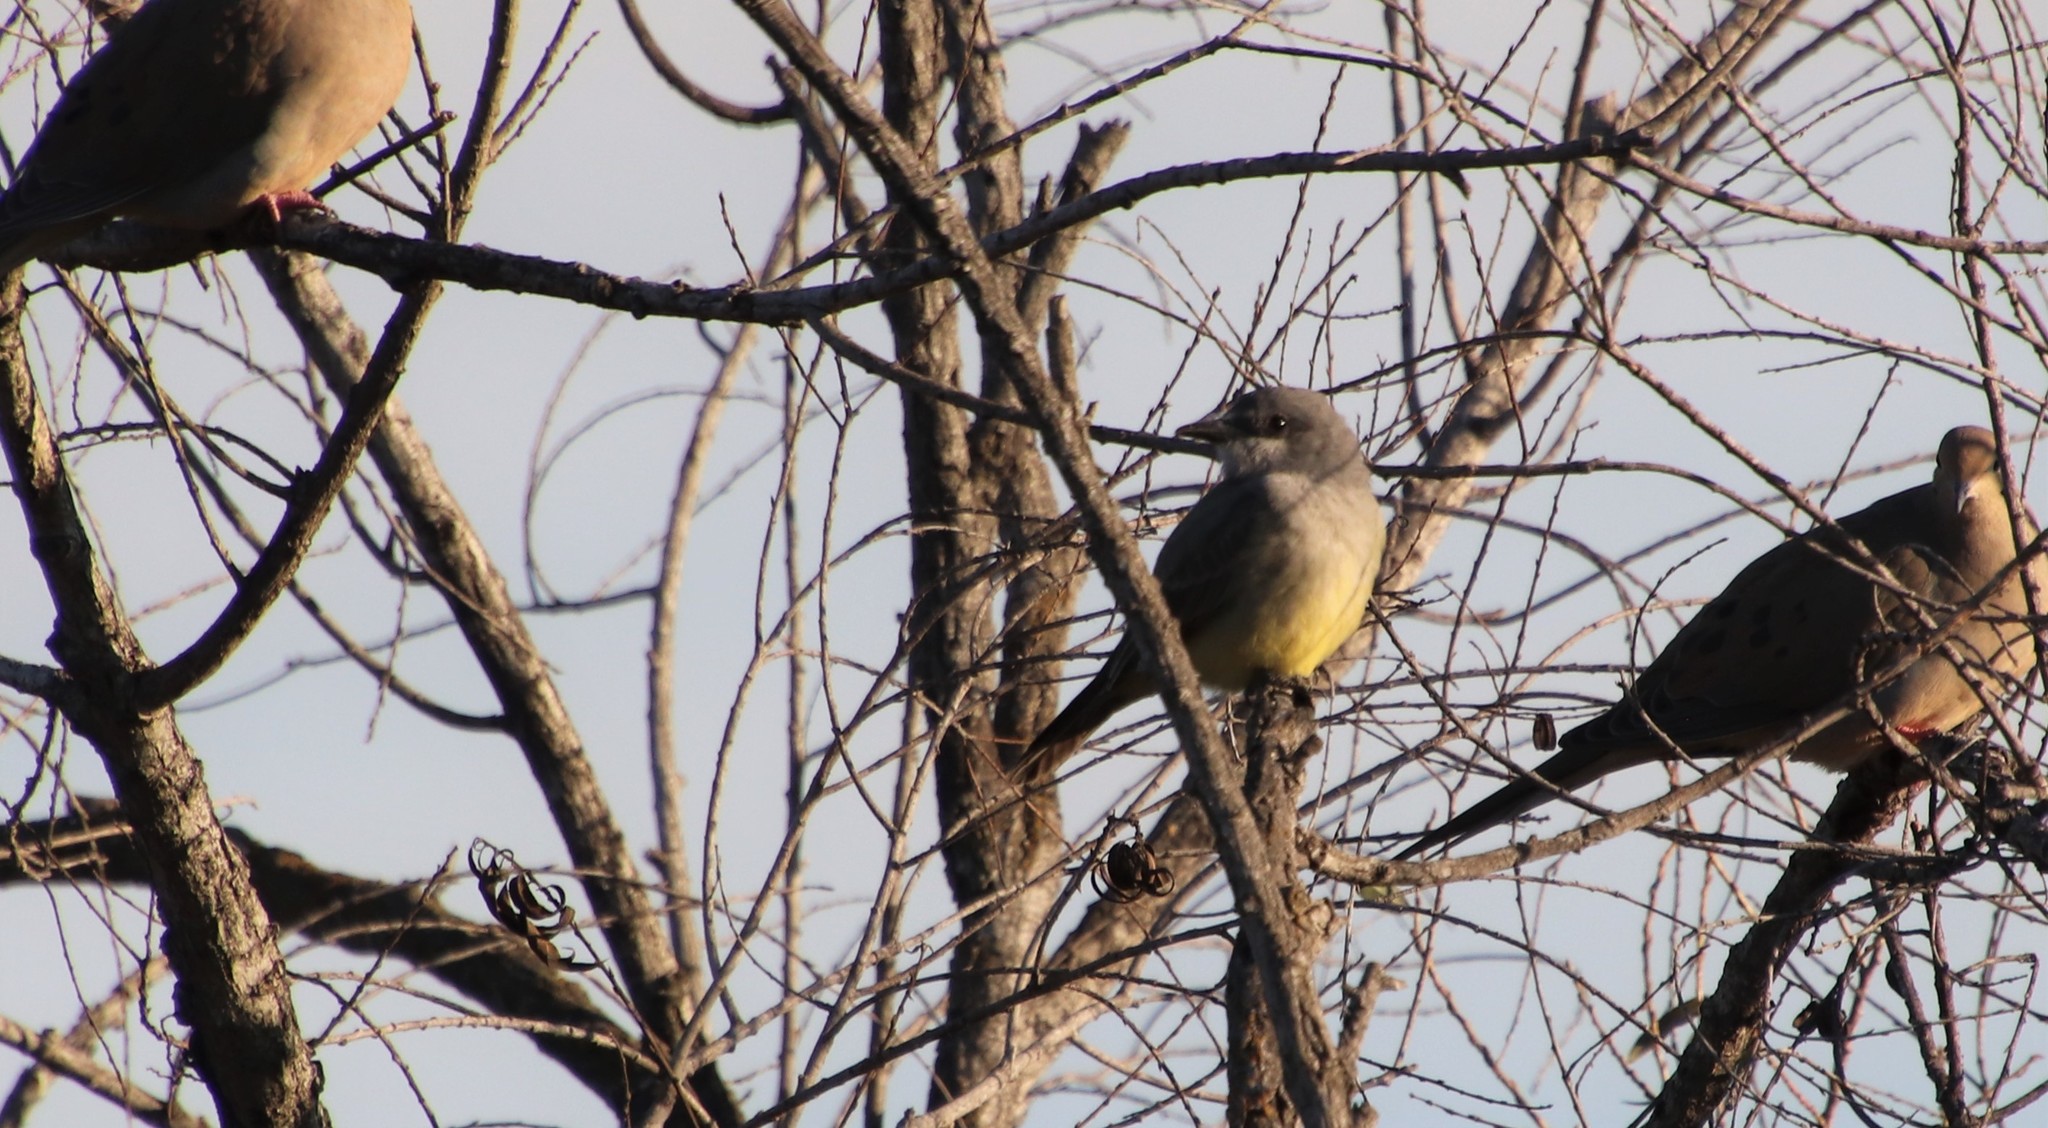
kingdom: Animalia
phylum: Chordata
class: Aves
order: Passeriformes
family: Tyrannidae
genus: Tyrannus
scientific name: Tyrannus vociferans
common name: Cassin's kingbird
